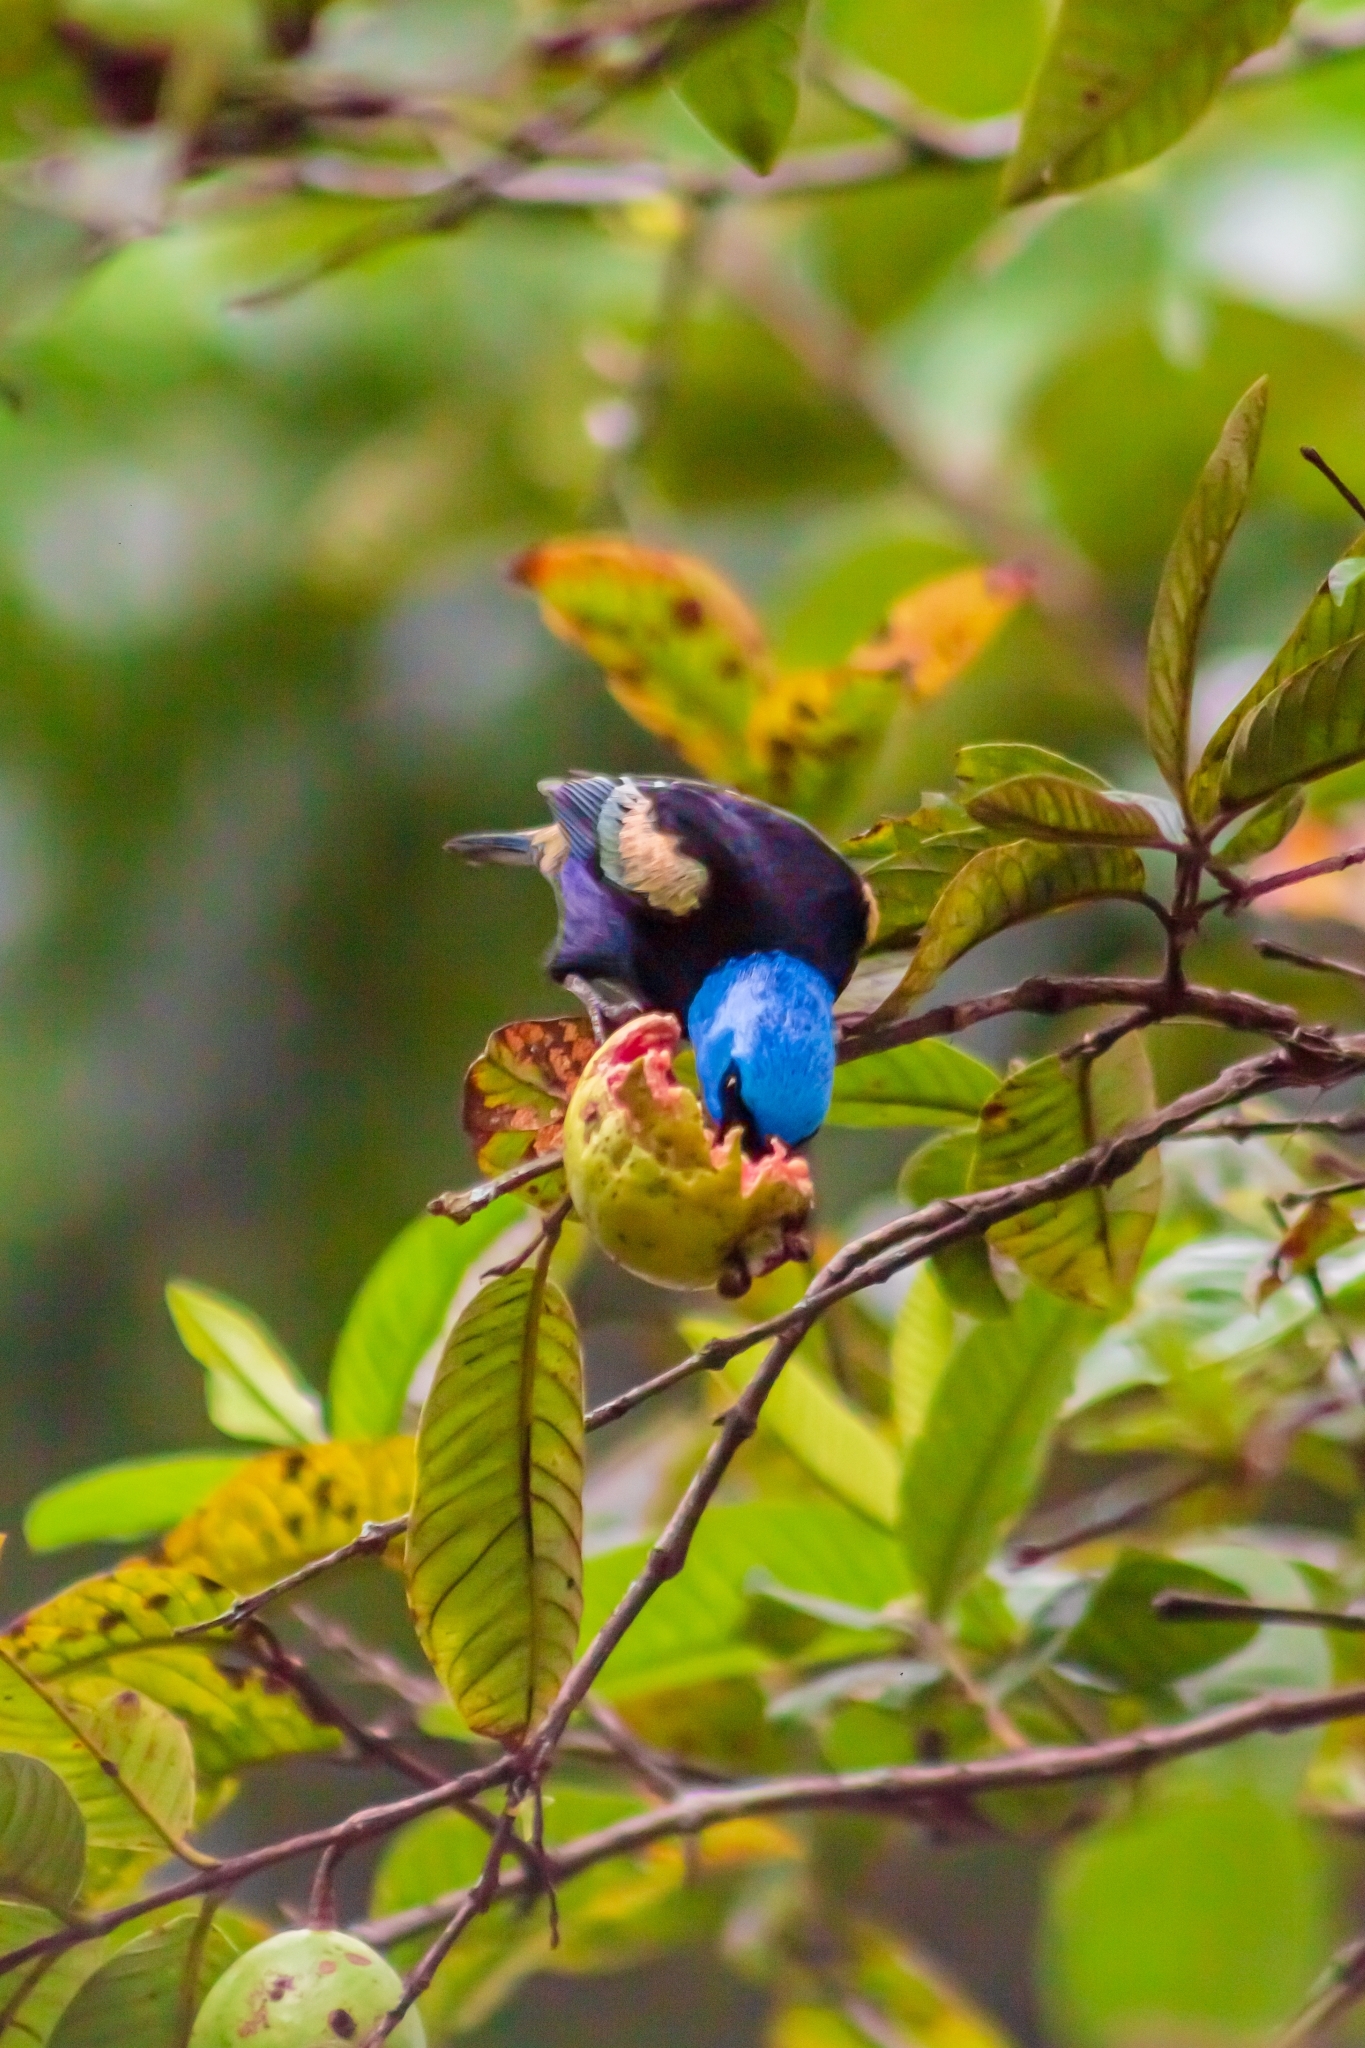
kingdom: Animalia
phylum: Chordata
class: Aves
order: Passeriformes
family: Thraupidae
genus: Stilpnia
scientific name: Stilpnia cyanicollis
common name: Blue-necked tanager
